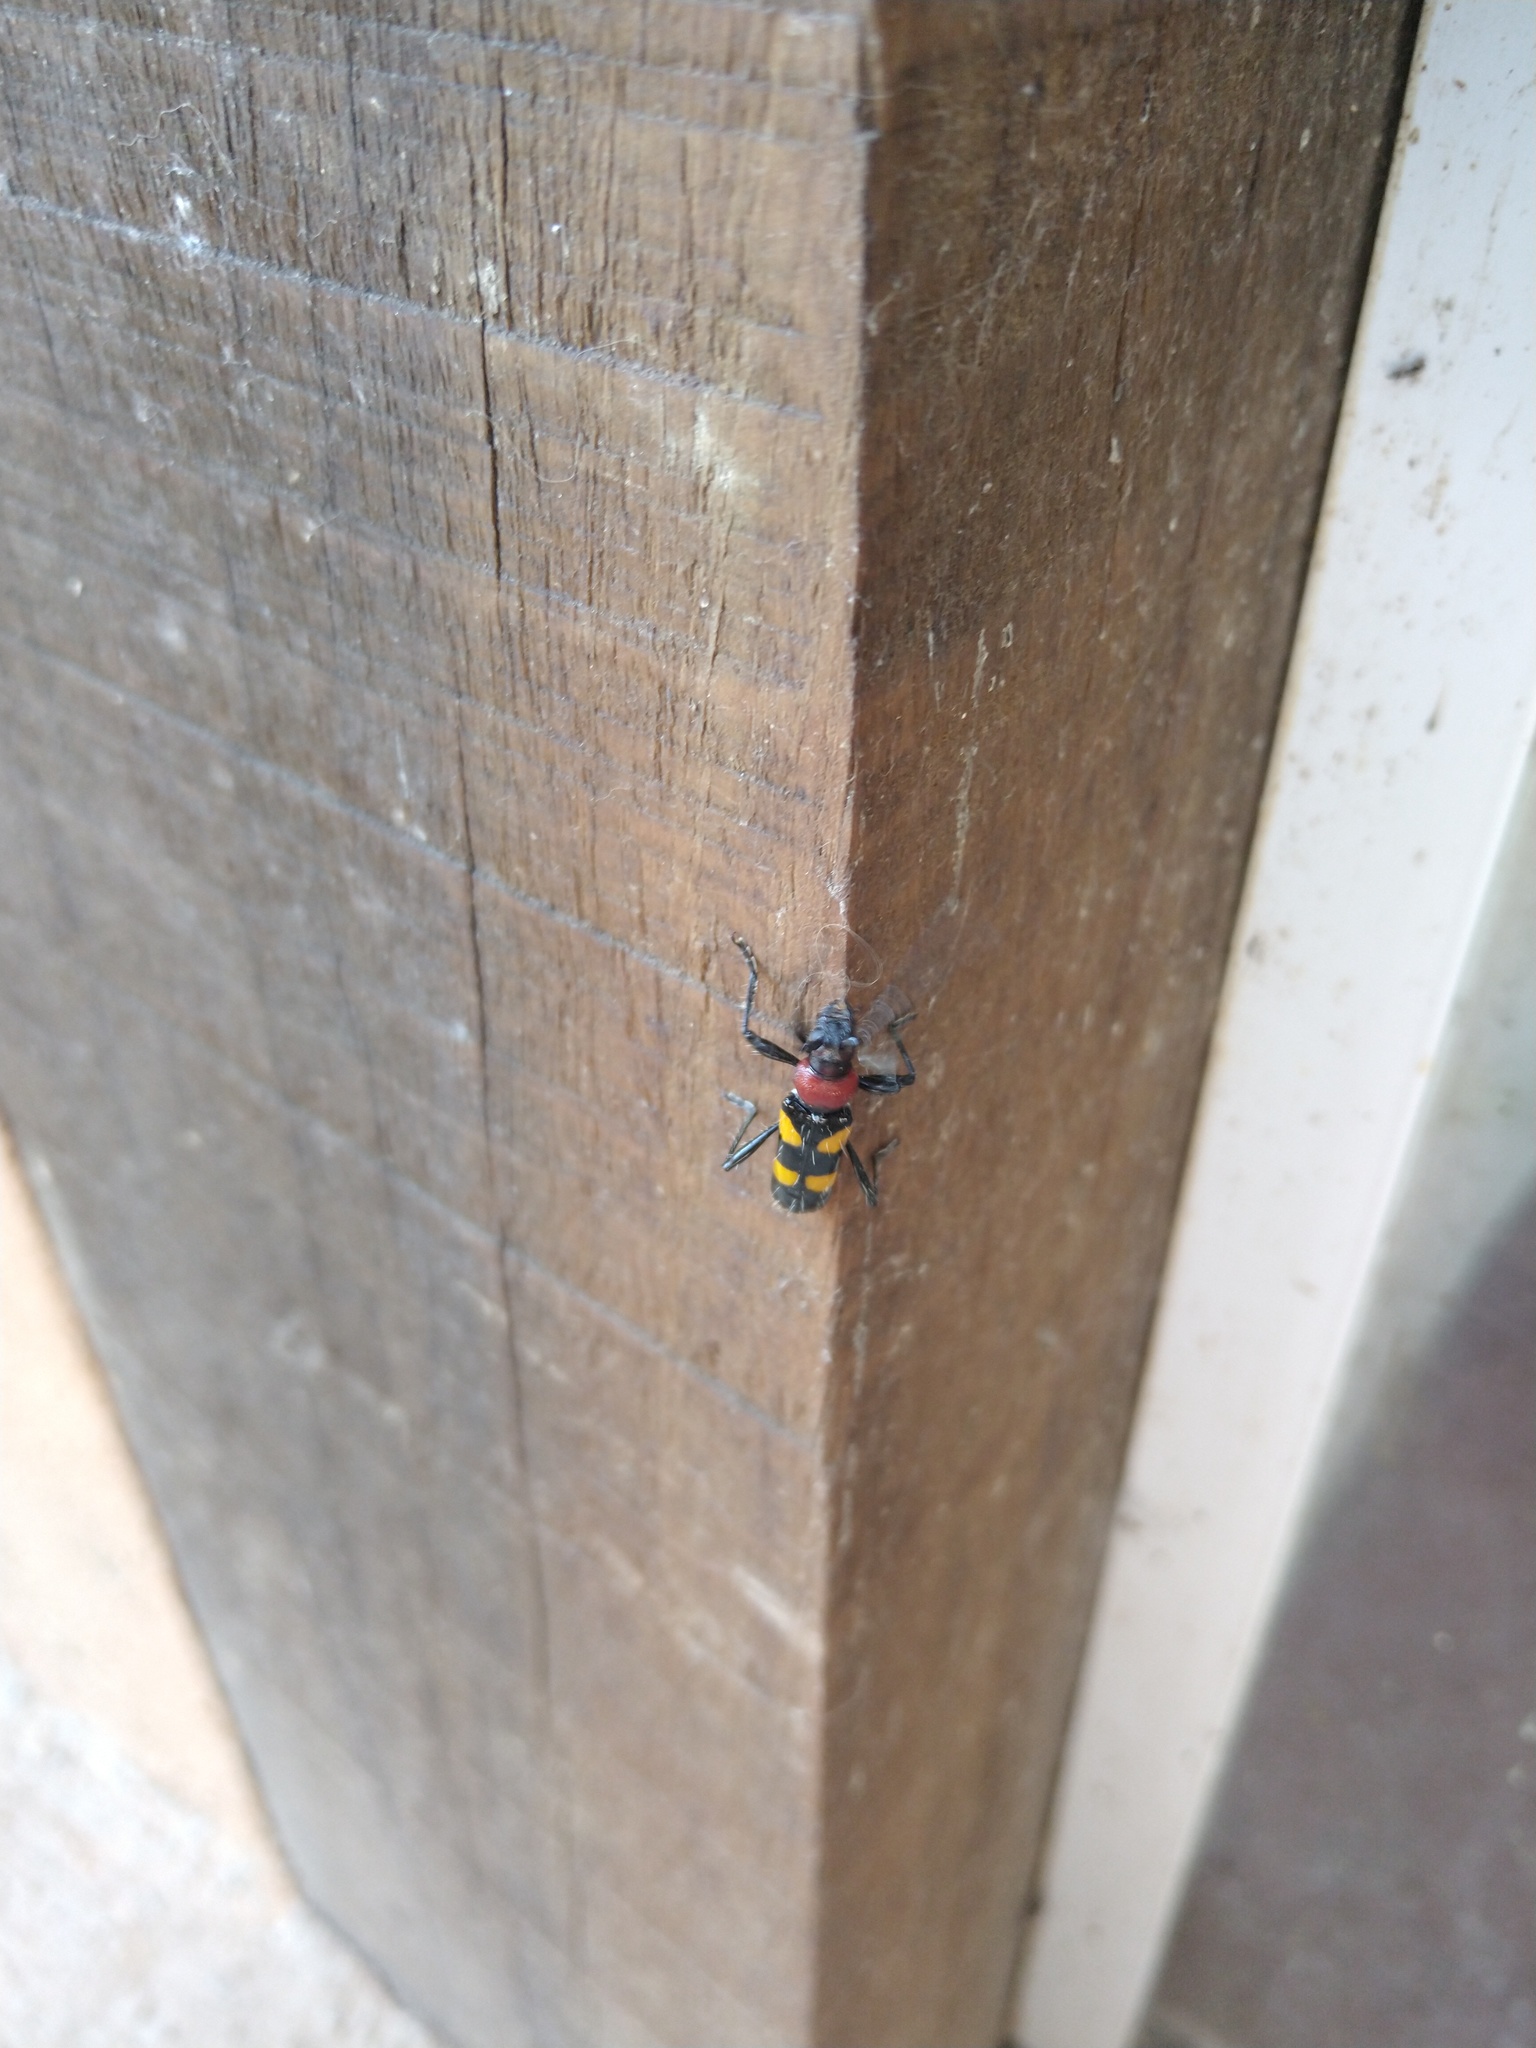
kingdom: Animalia
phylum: Arthropoda
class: Insecta
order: Coleoptera
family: Cerambycidae
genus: Stenygra
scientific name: Stenygra setigera
